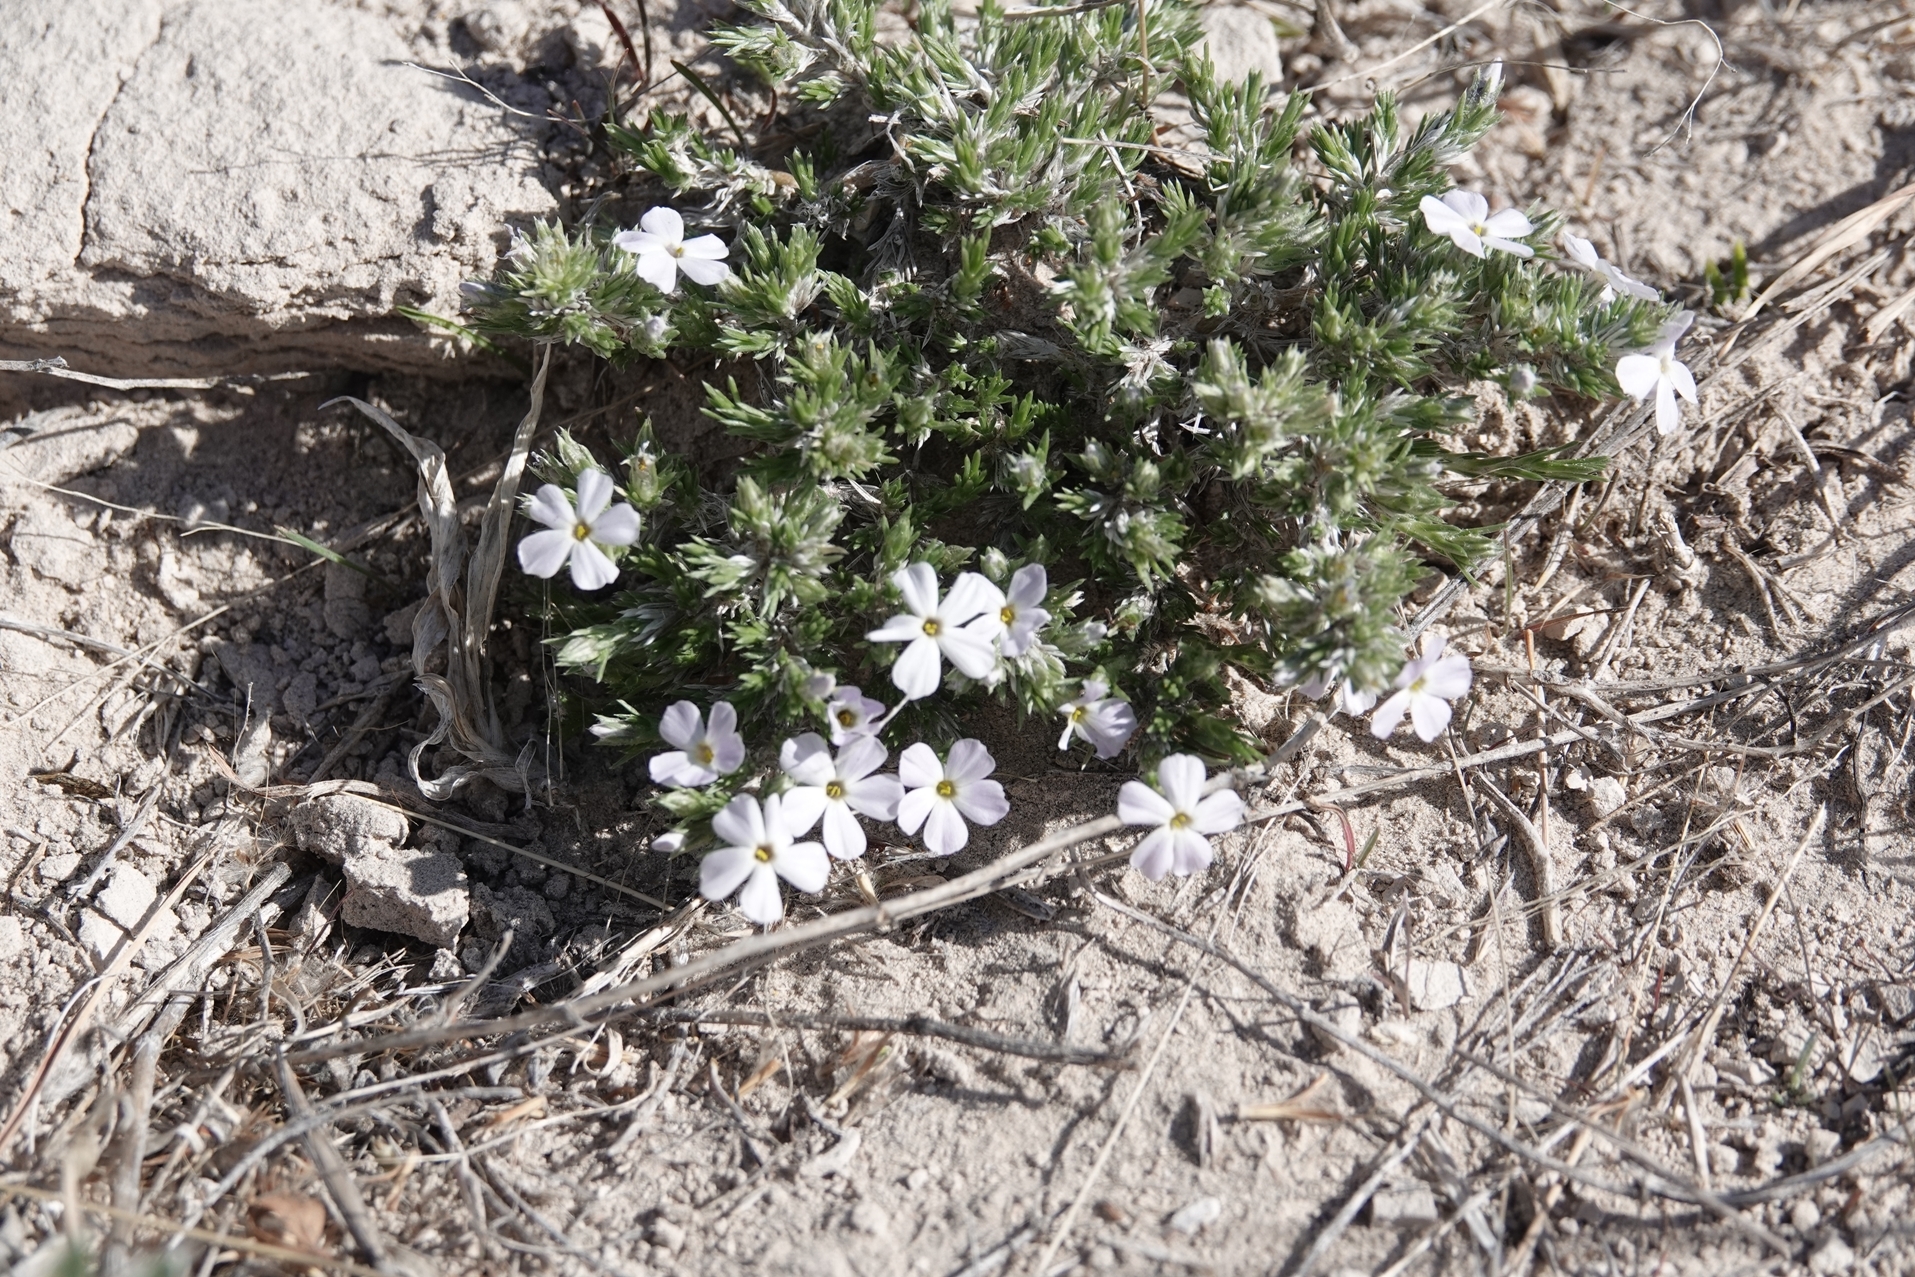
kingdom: Plantae
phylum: Tracheophyta
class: Magnoliopsida
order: Ericales
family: Polemoniaceae
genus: Phlox
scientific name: Phlox hoodii
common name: Moss phlox
